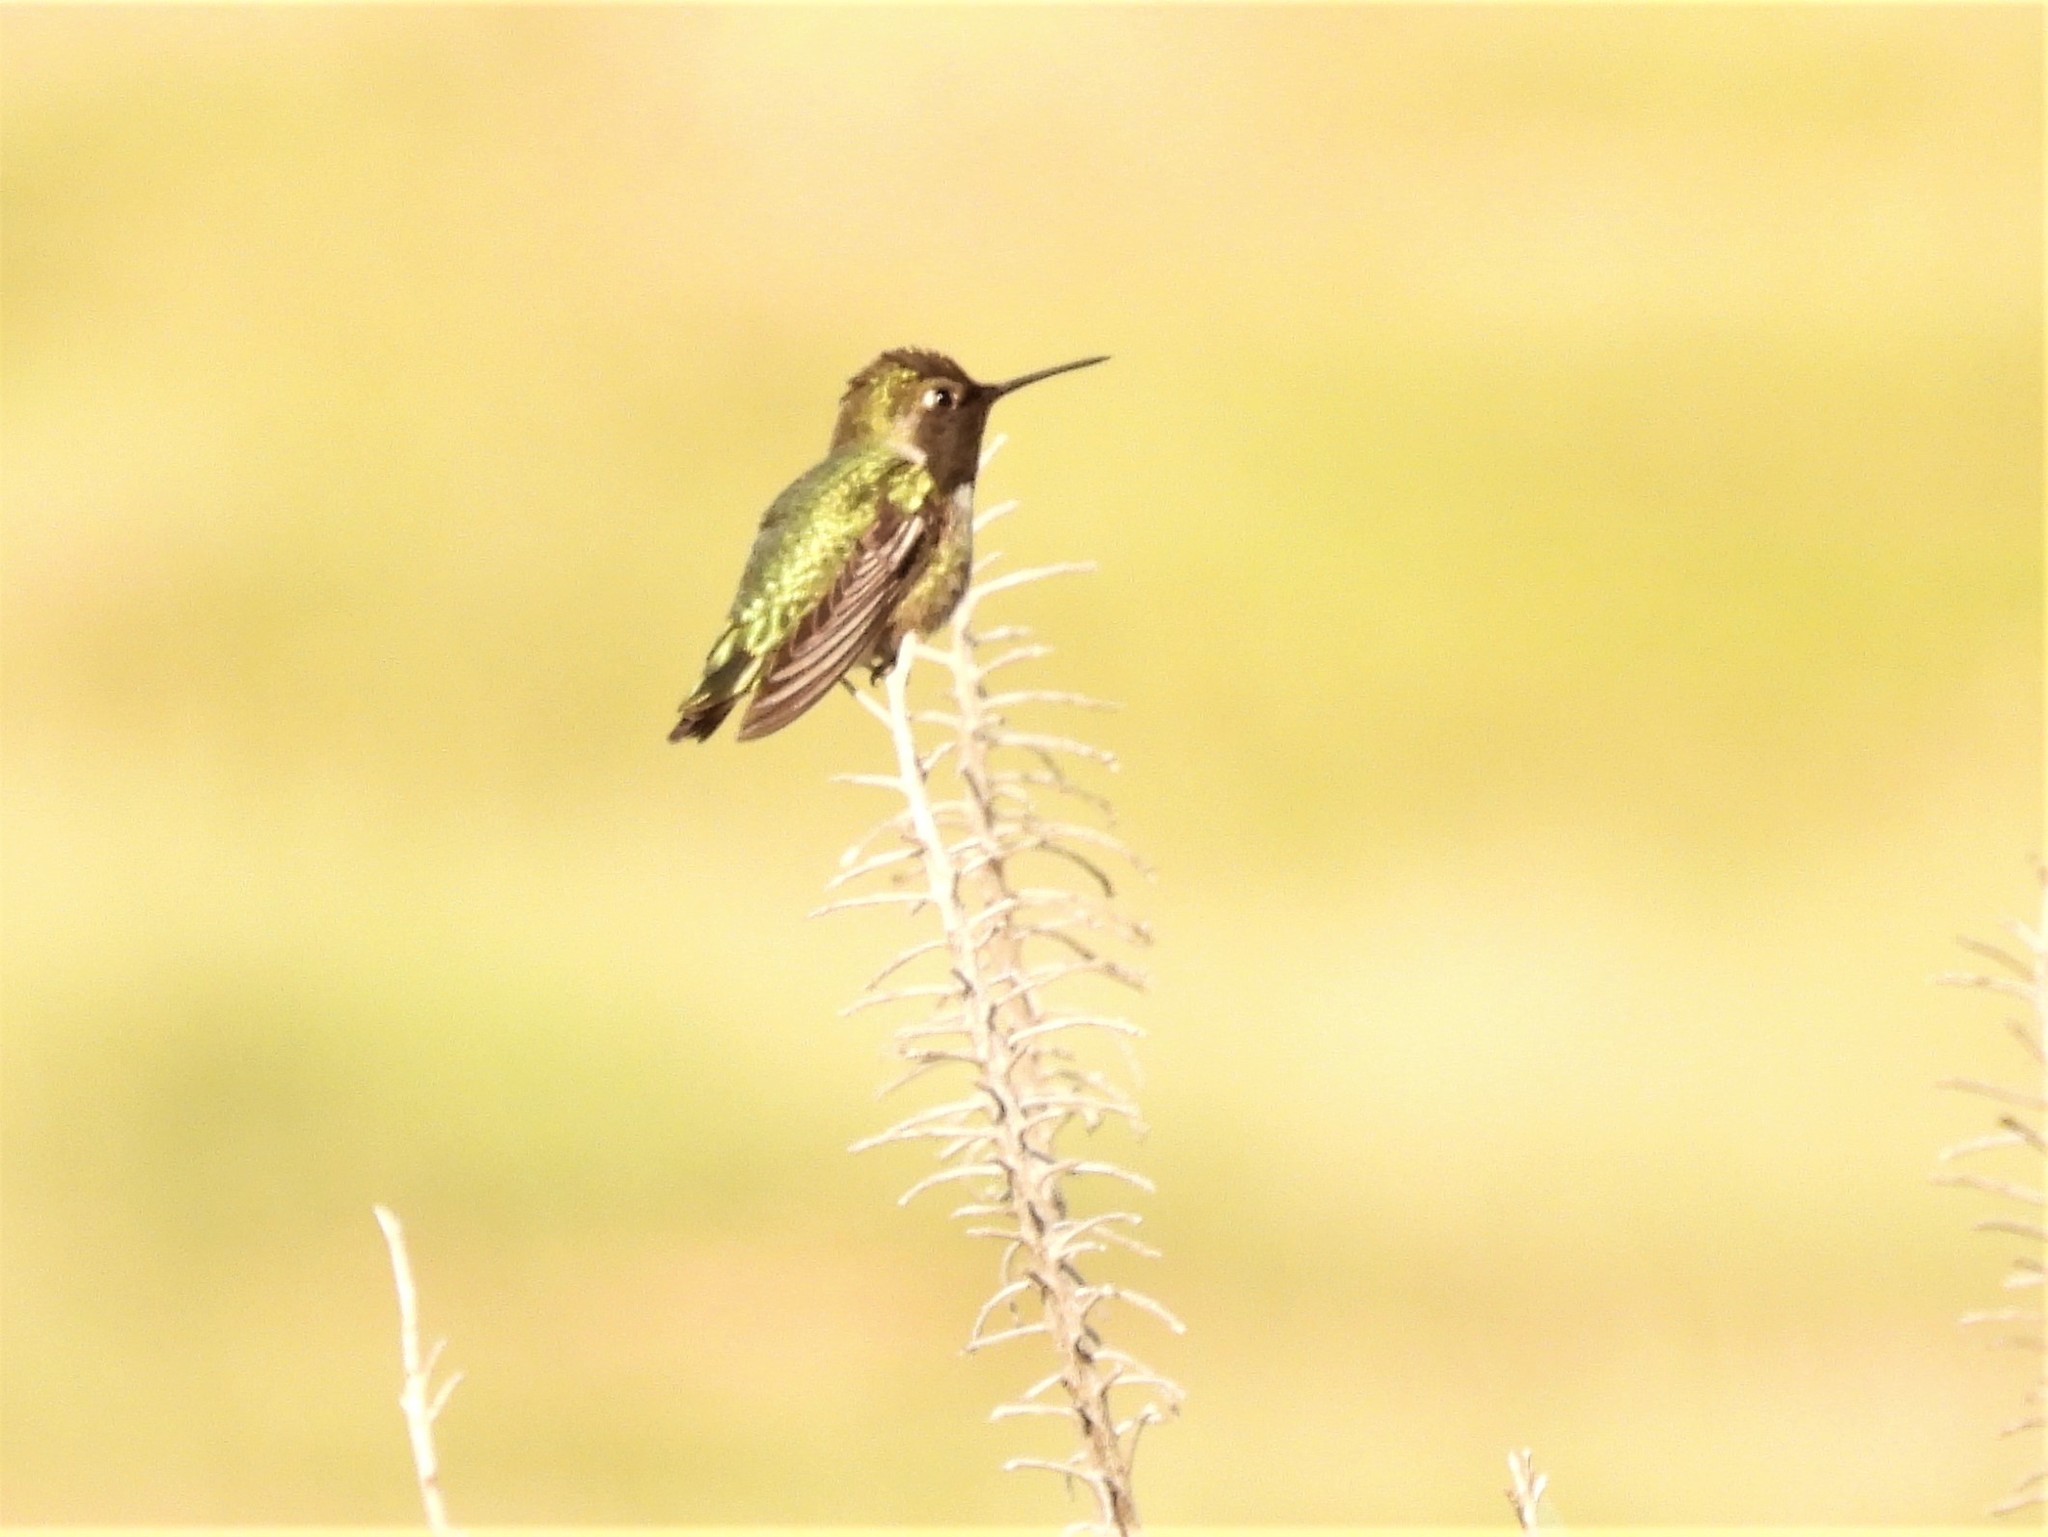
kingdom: Animalia
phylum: Chordata
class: Aves
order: Apodiformes
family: Trochilidae
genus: Calypte
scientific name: Calypte anna
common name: Anna's hummingbird
